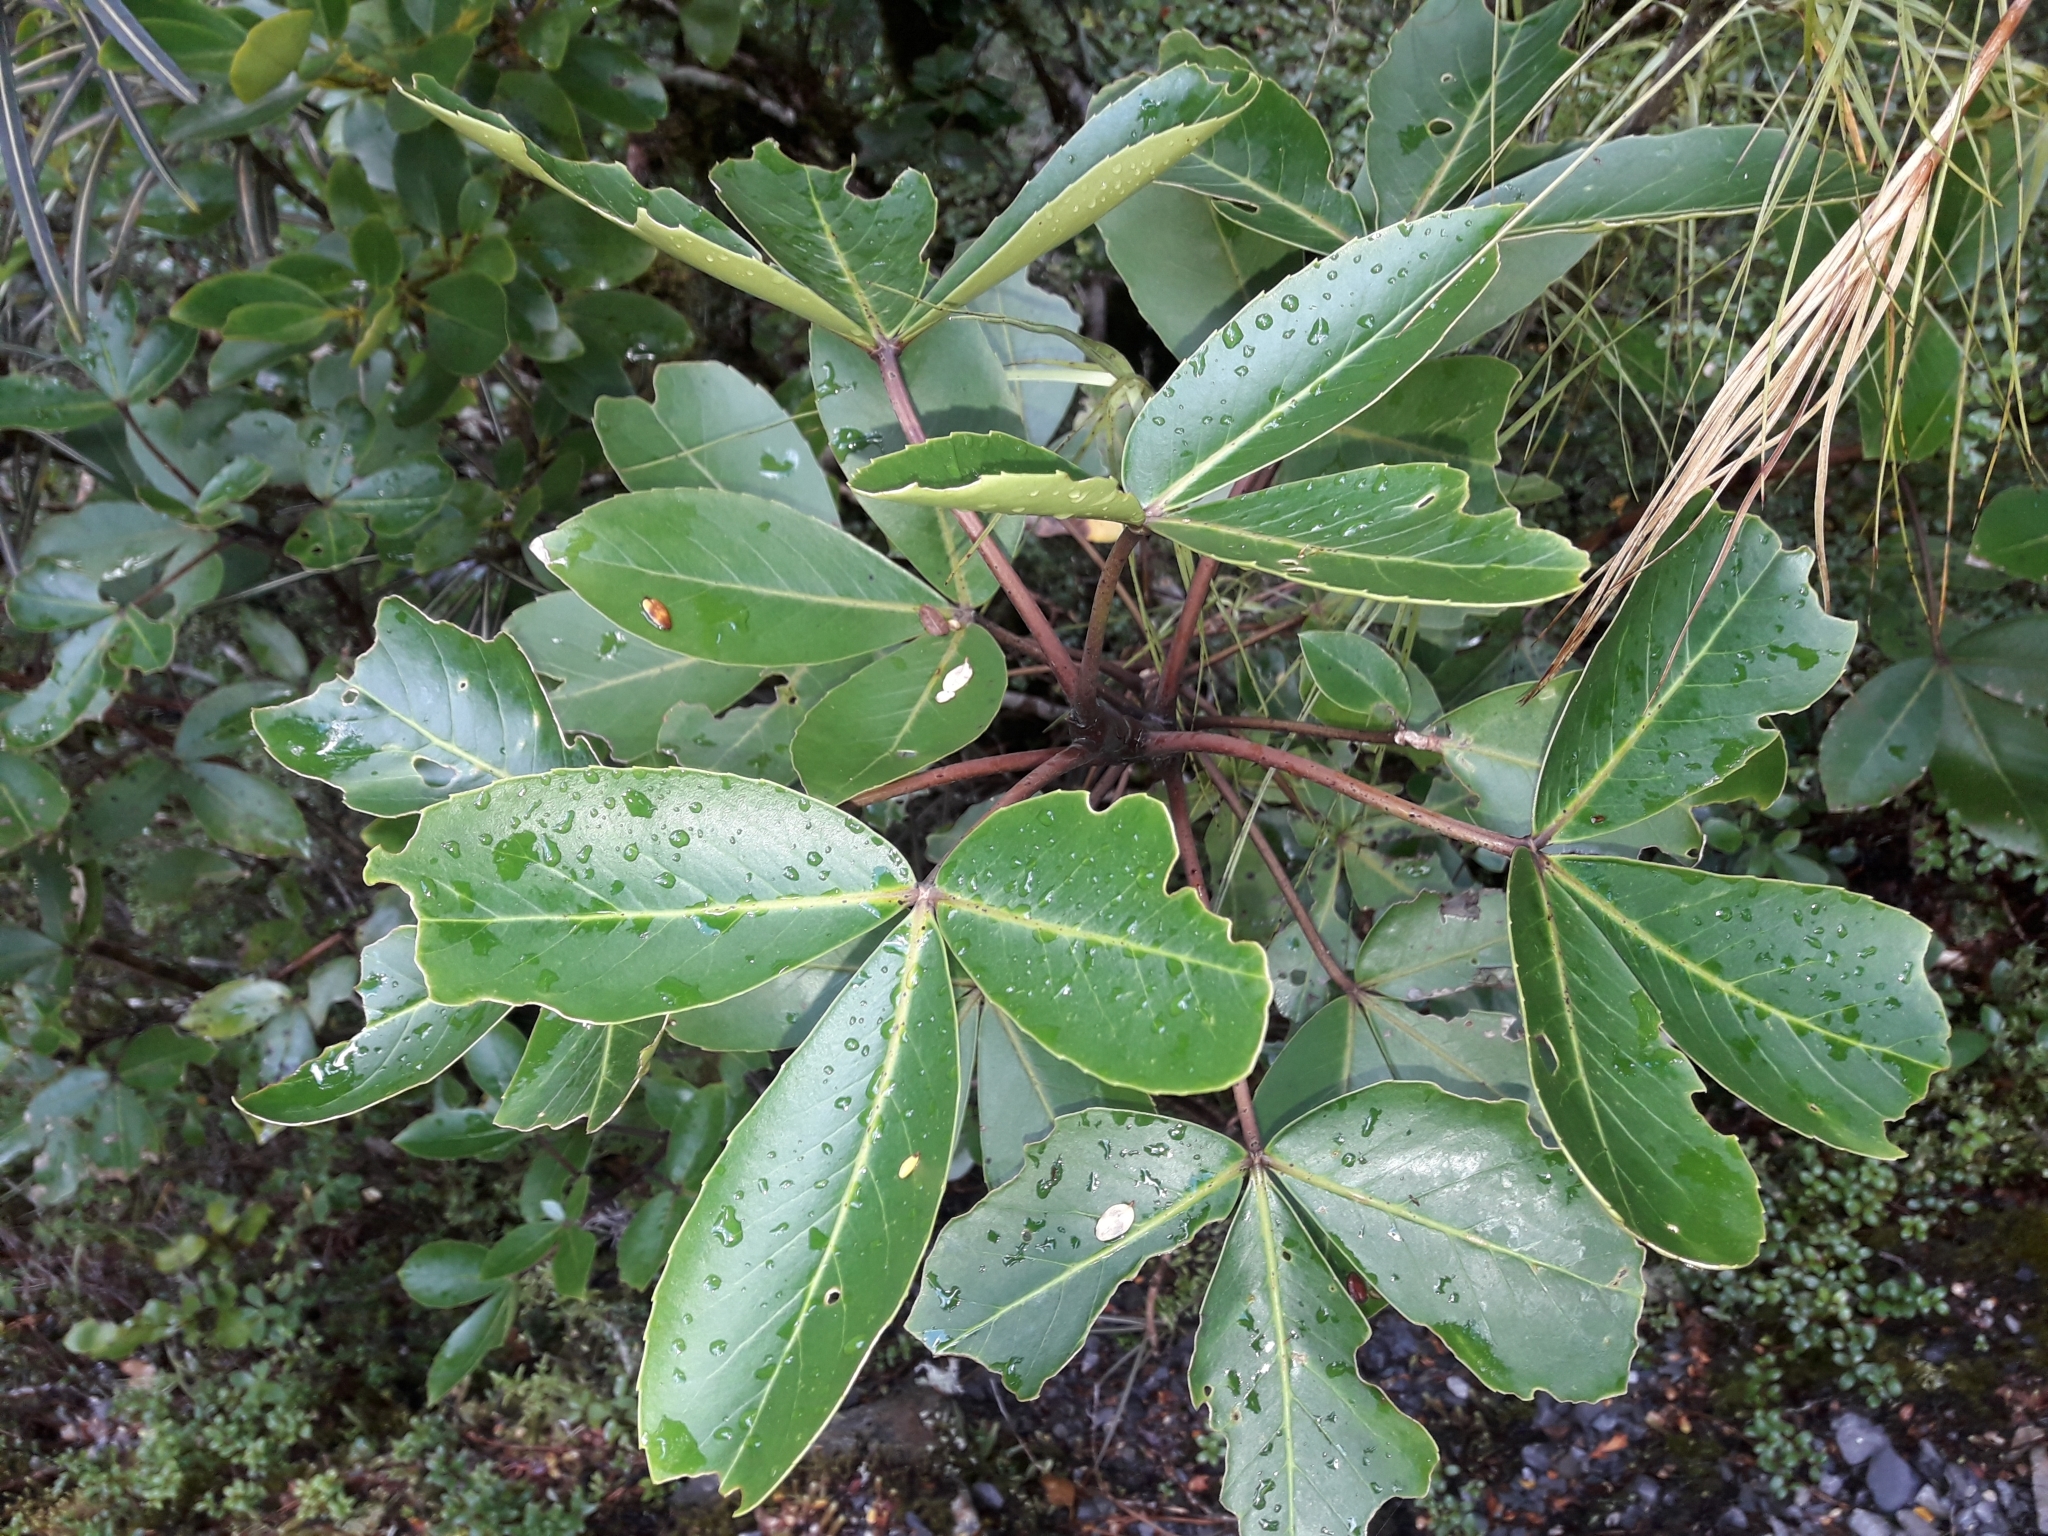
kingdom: Plantae
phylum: Tracheophyta
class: Magnoliopsida
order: Apiales
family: Araliaceae
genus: Neopanax
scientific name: Neopanax colensoi
